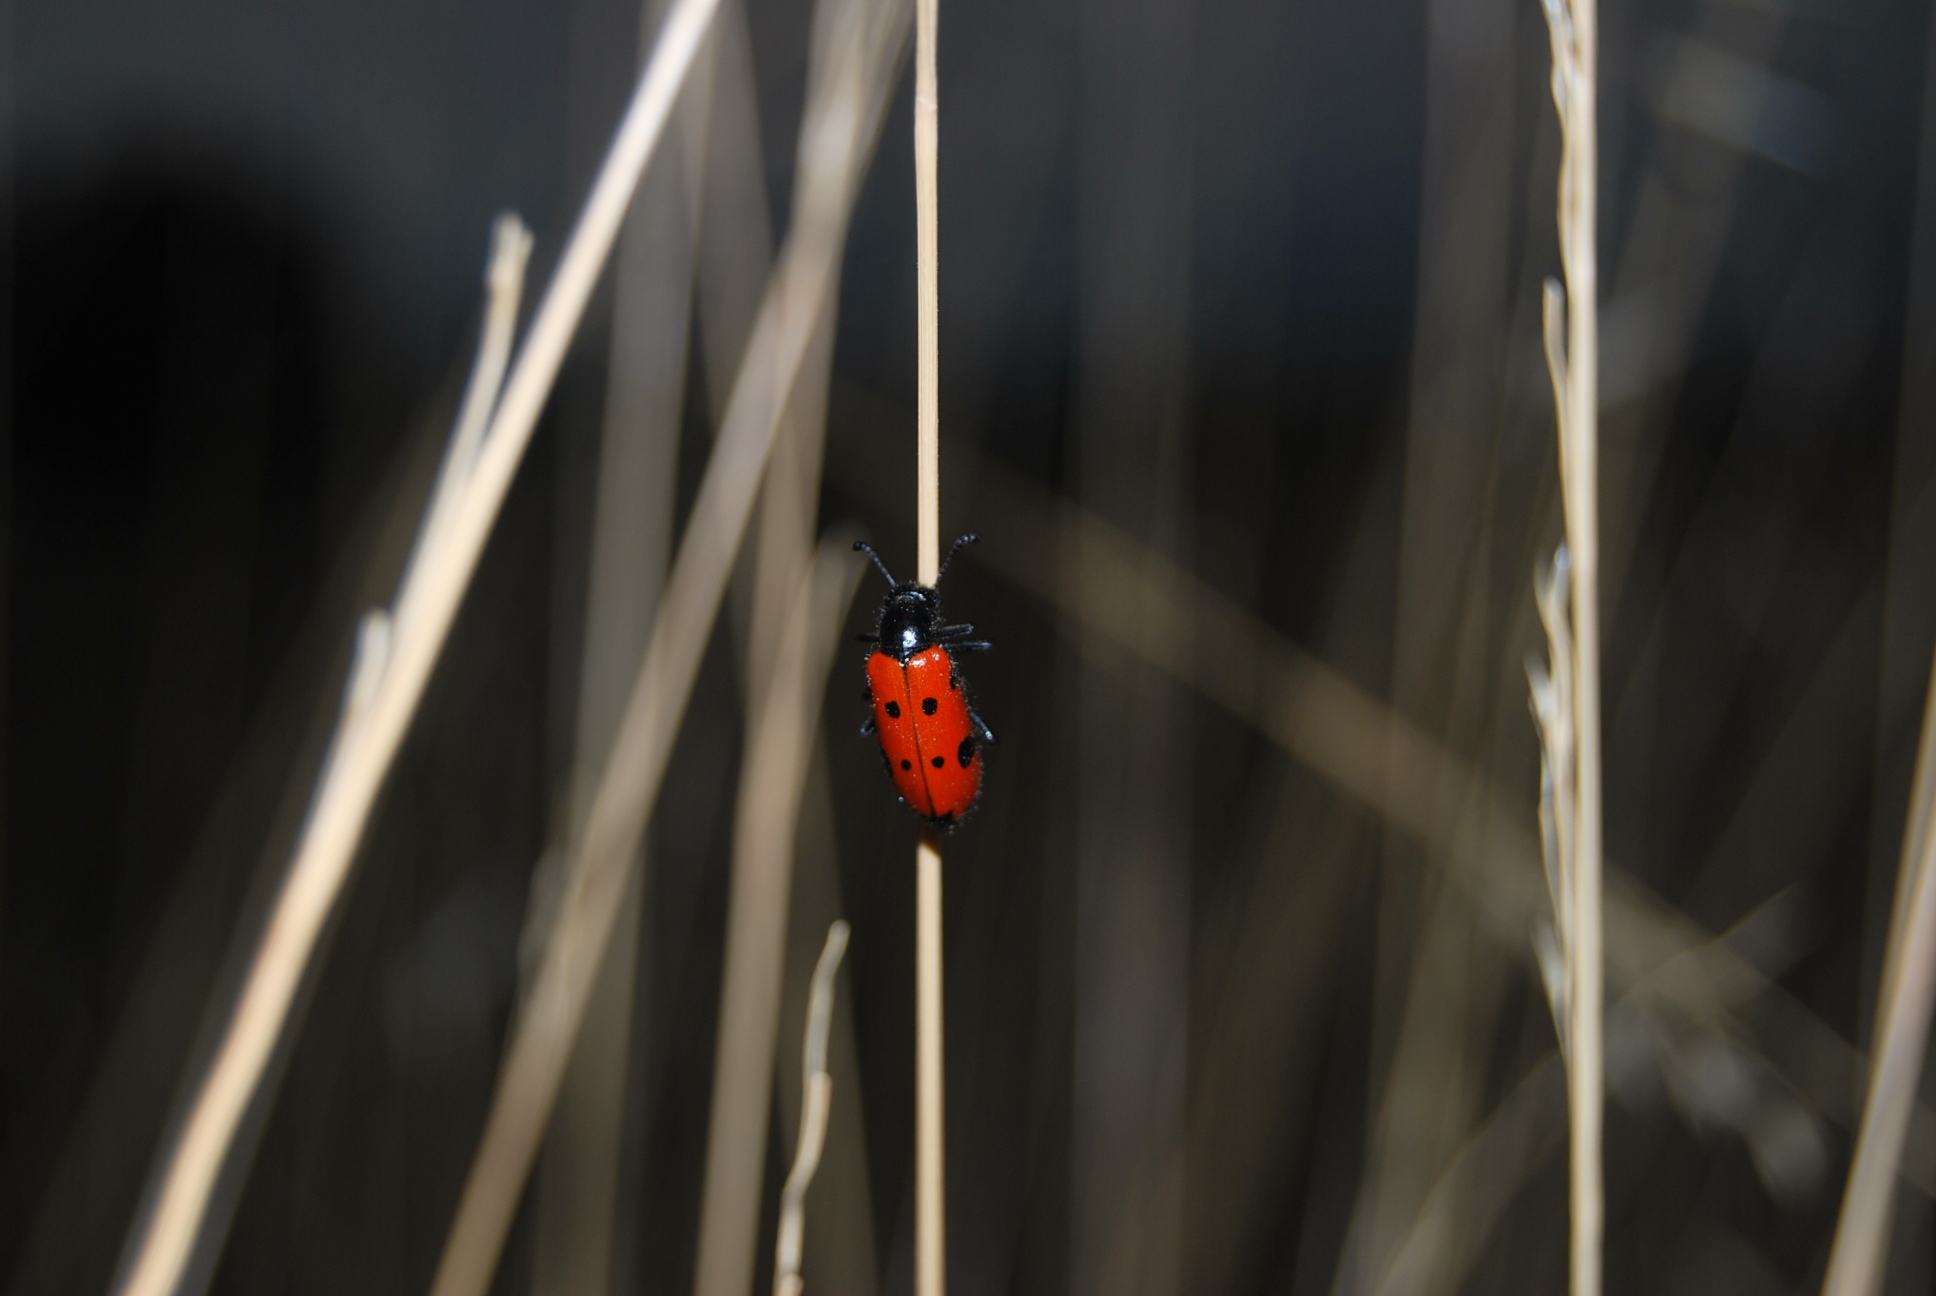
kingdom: Animalia
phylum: Arthropoda
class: Insecta
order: Coleoptera
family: Meloidae
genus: Mylabris
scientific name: Mylabris quadripunctata
